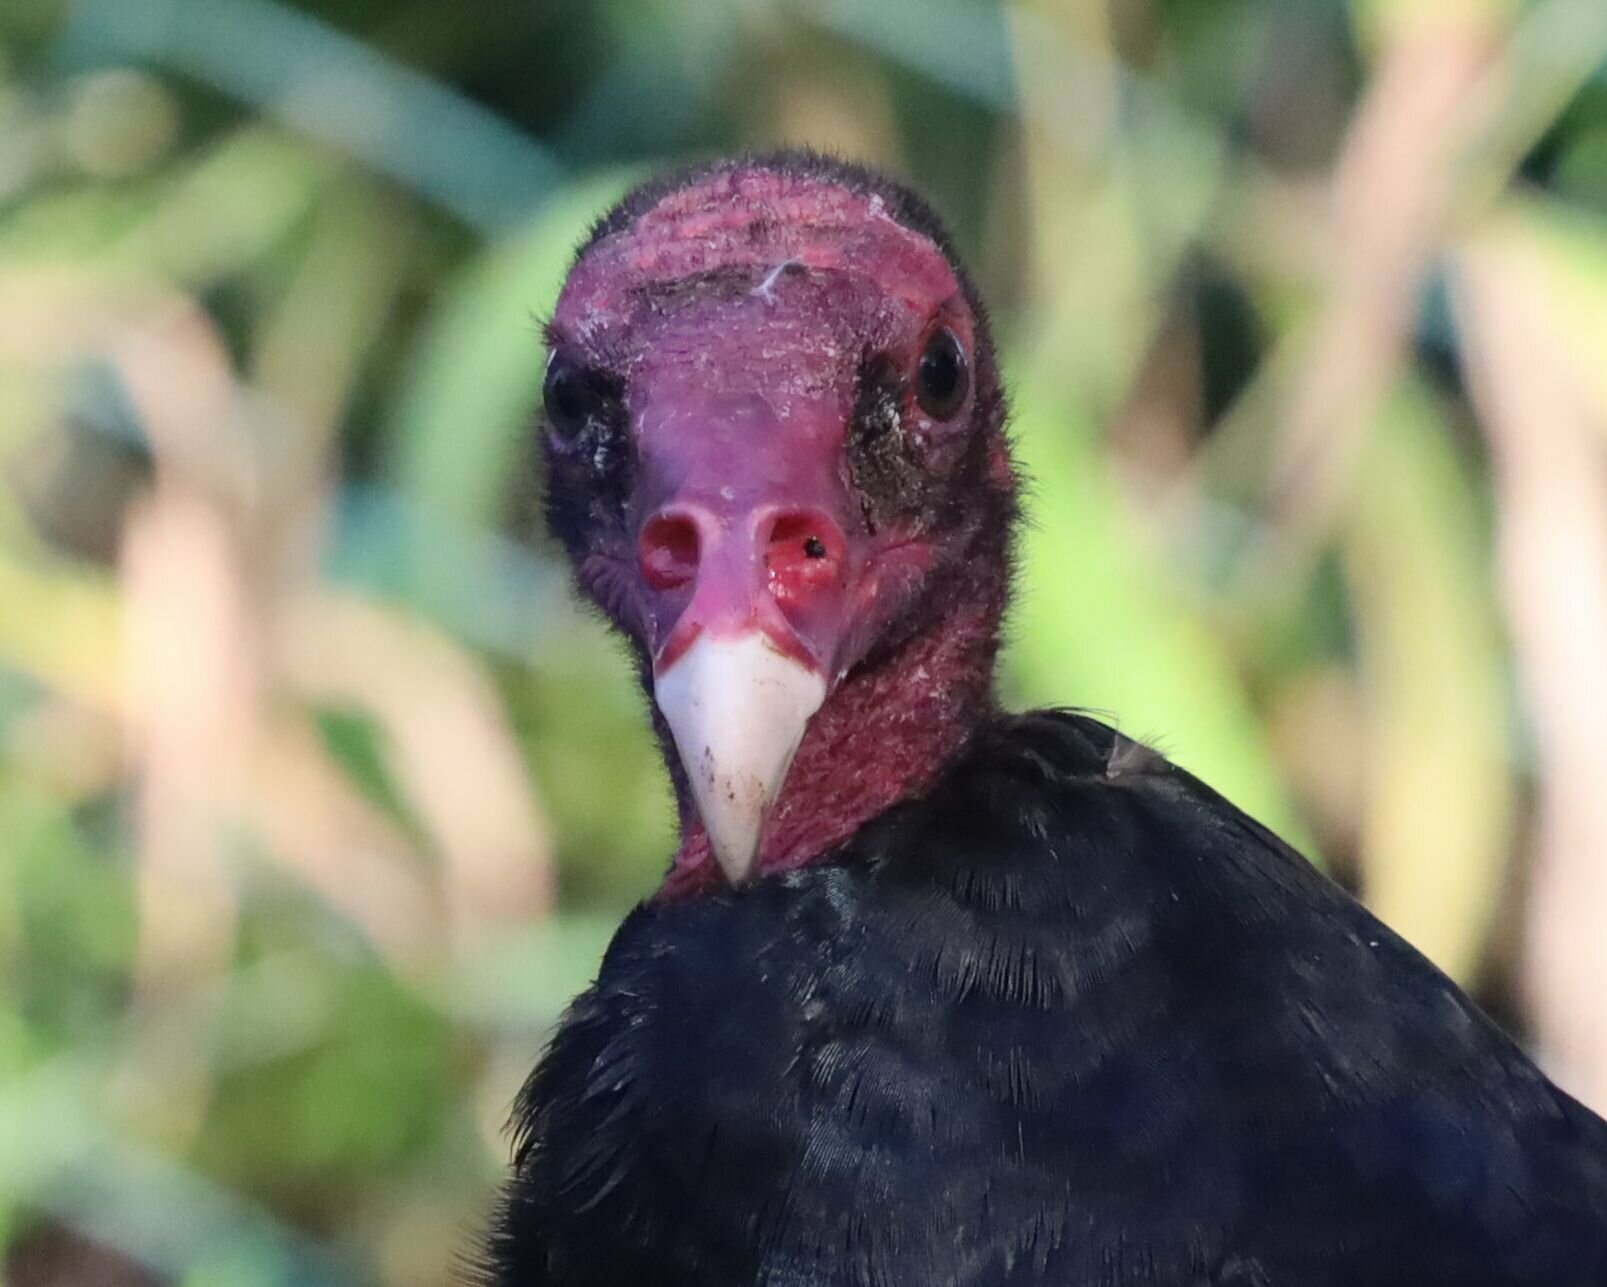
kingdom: Animalia
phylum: Chordata
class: Aves
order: Accipitriformes
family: Cathartidae
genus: Cathartes
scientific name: Cathartes aura
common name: Turkey vulture
